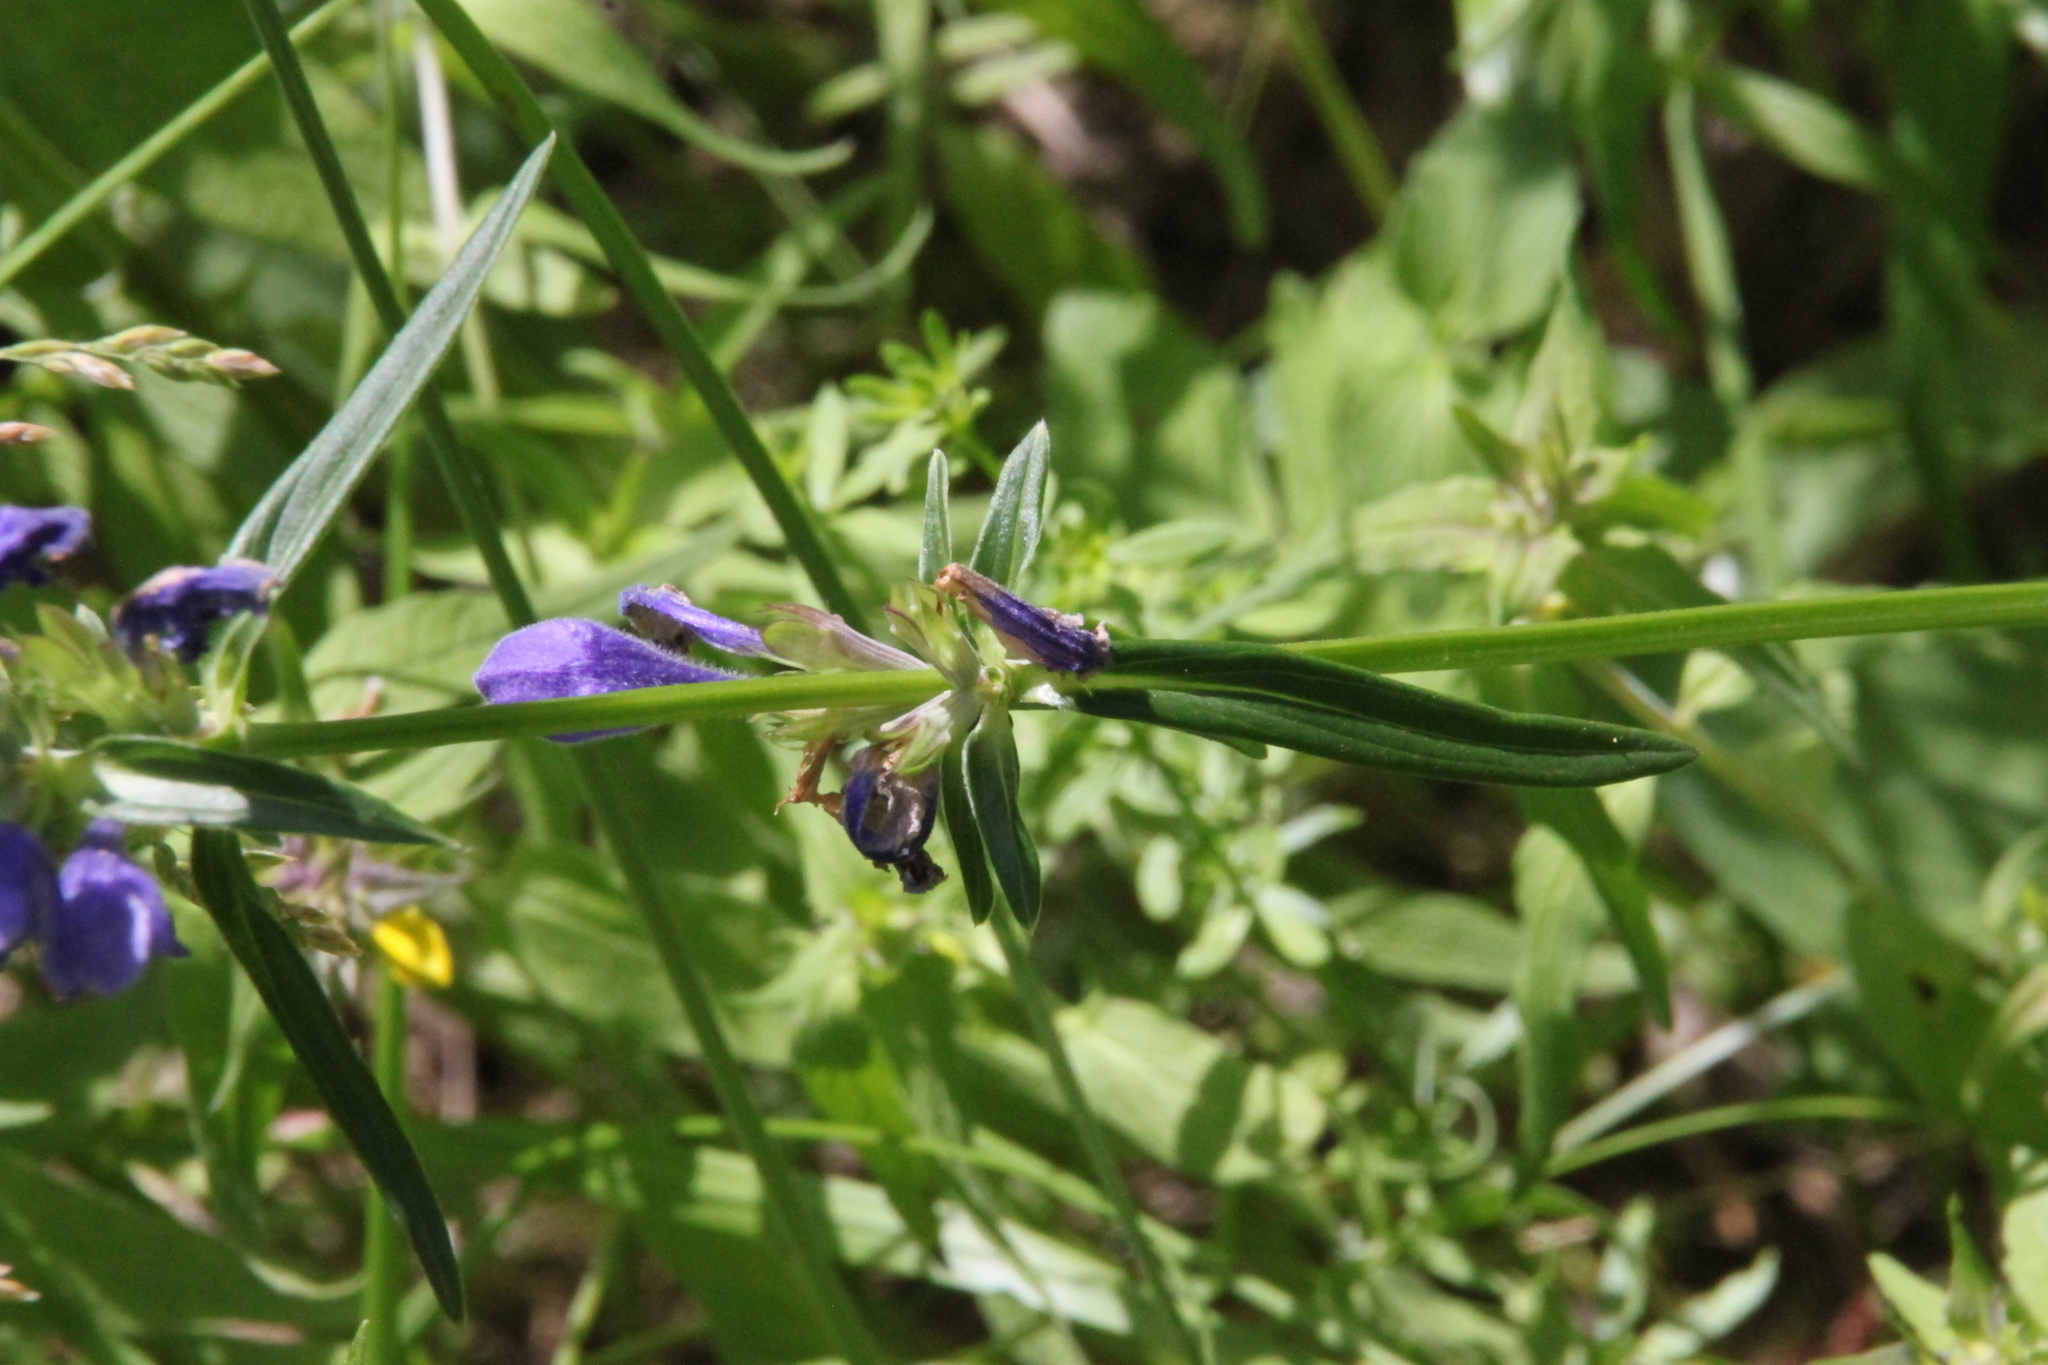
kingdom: Plantae
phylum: Tracheophyta
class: Magnoliopsida
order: Lamiales
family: Lamiaceae
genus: Dracocephalum
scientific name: Dracocephalum ruyschiana
